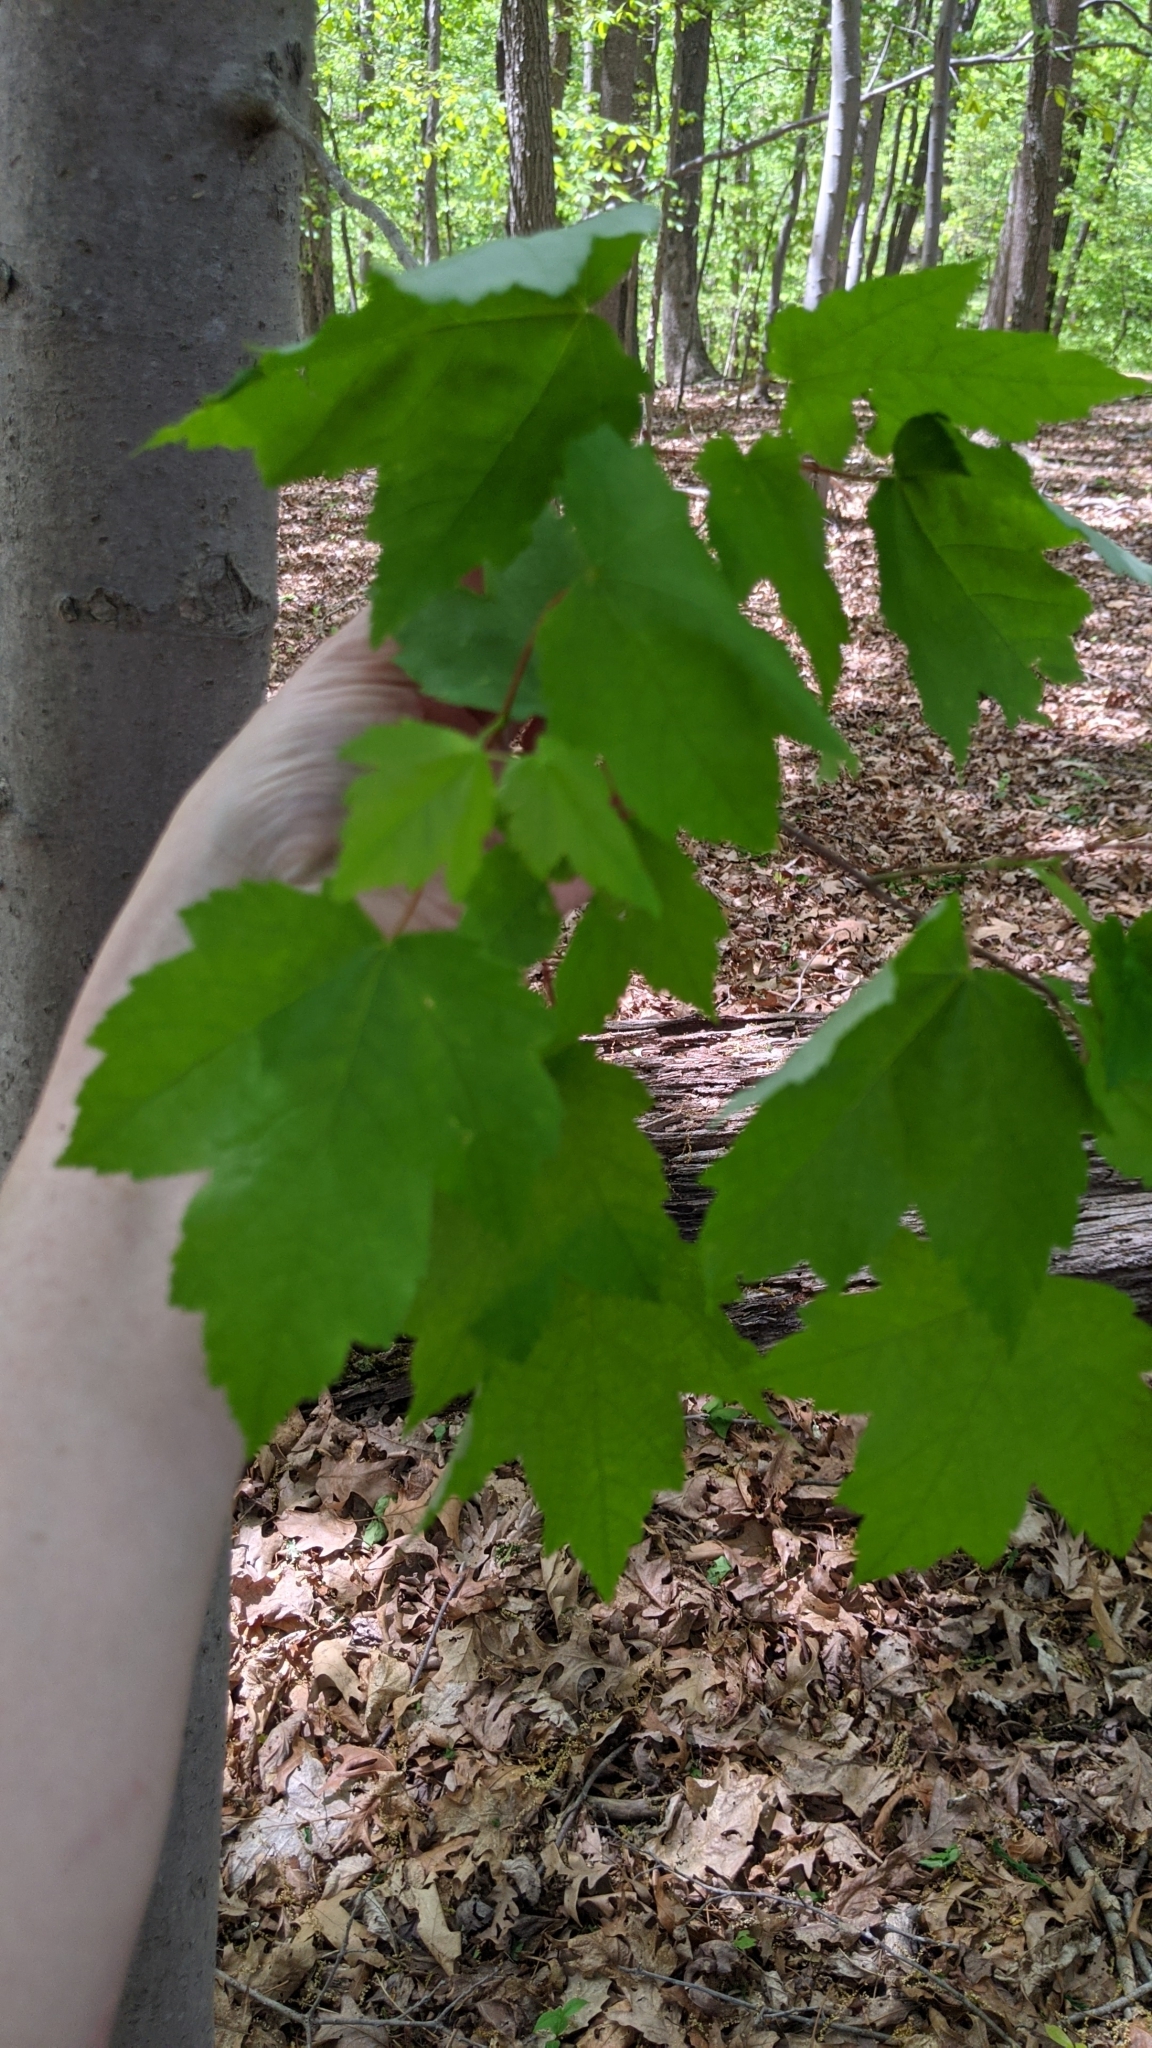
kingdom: Plantae
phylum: Tracheophyta
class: Magnoliopsida
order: Sapindales
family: Sapindaceae
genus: Acer
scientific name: Acer rubrum
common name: Red maple
